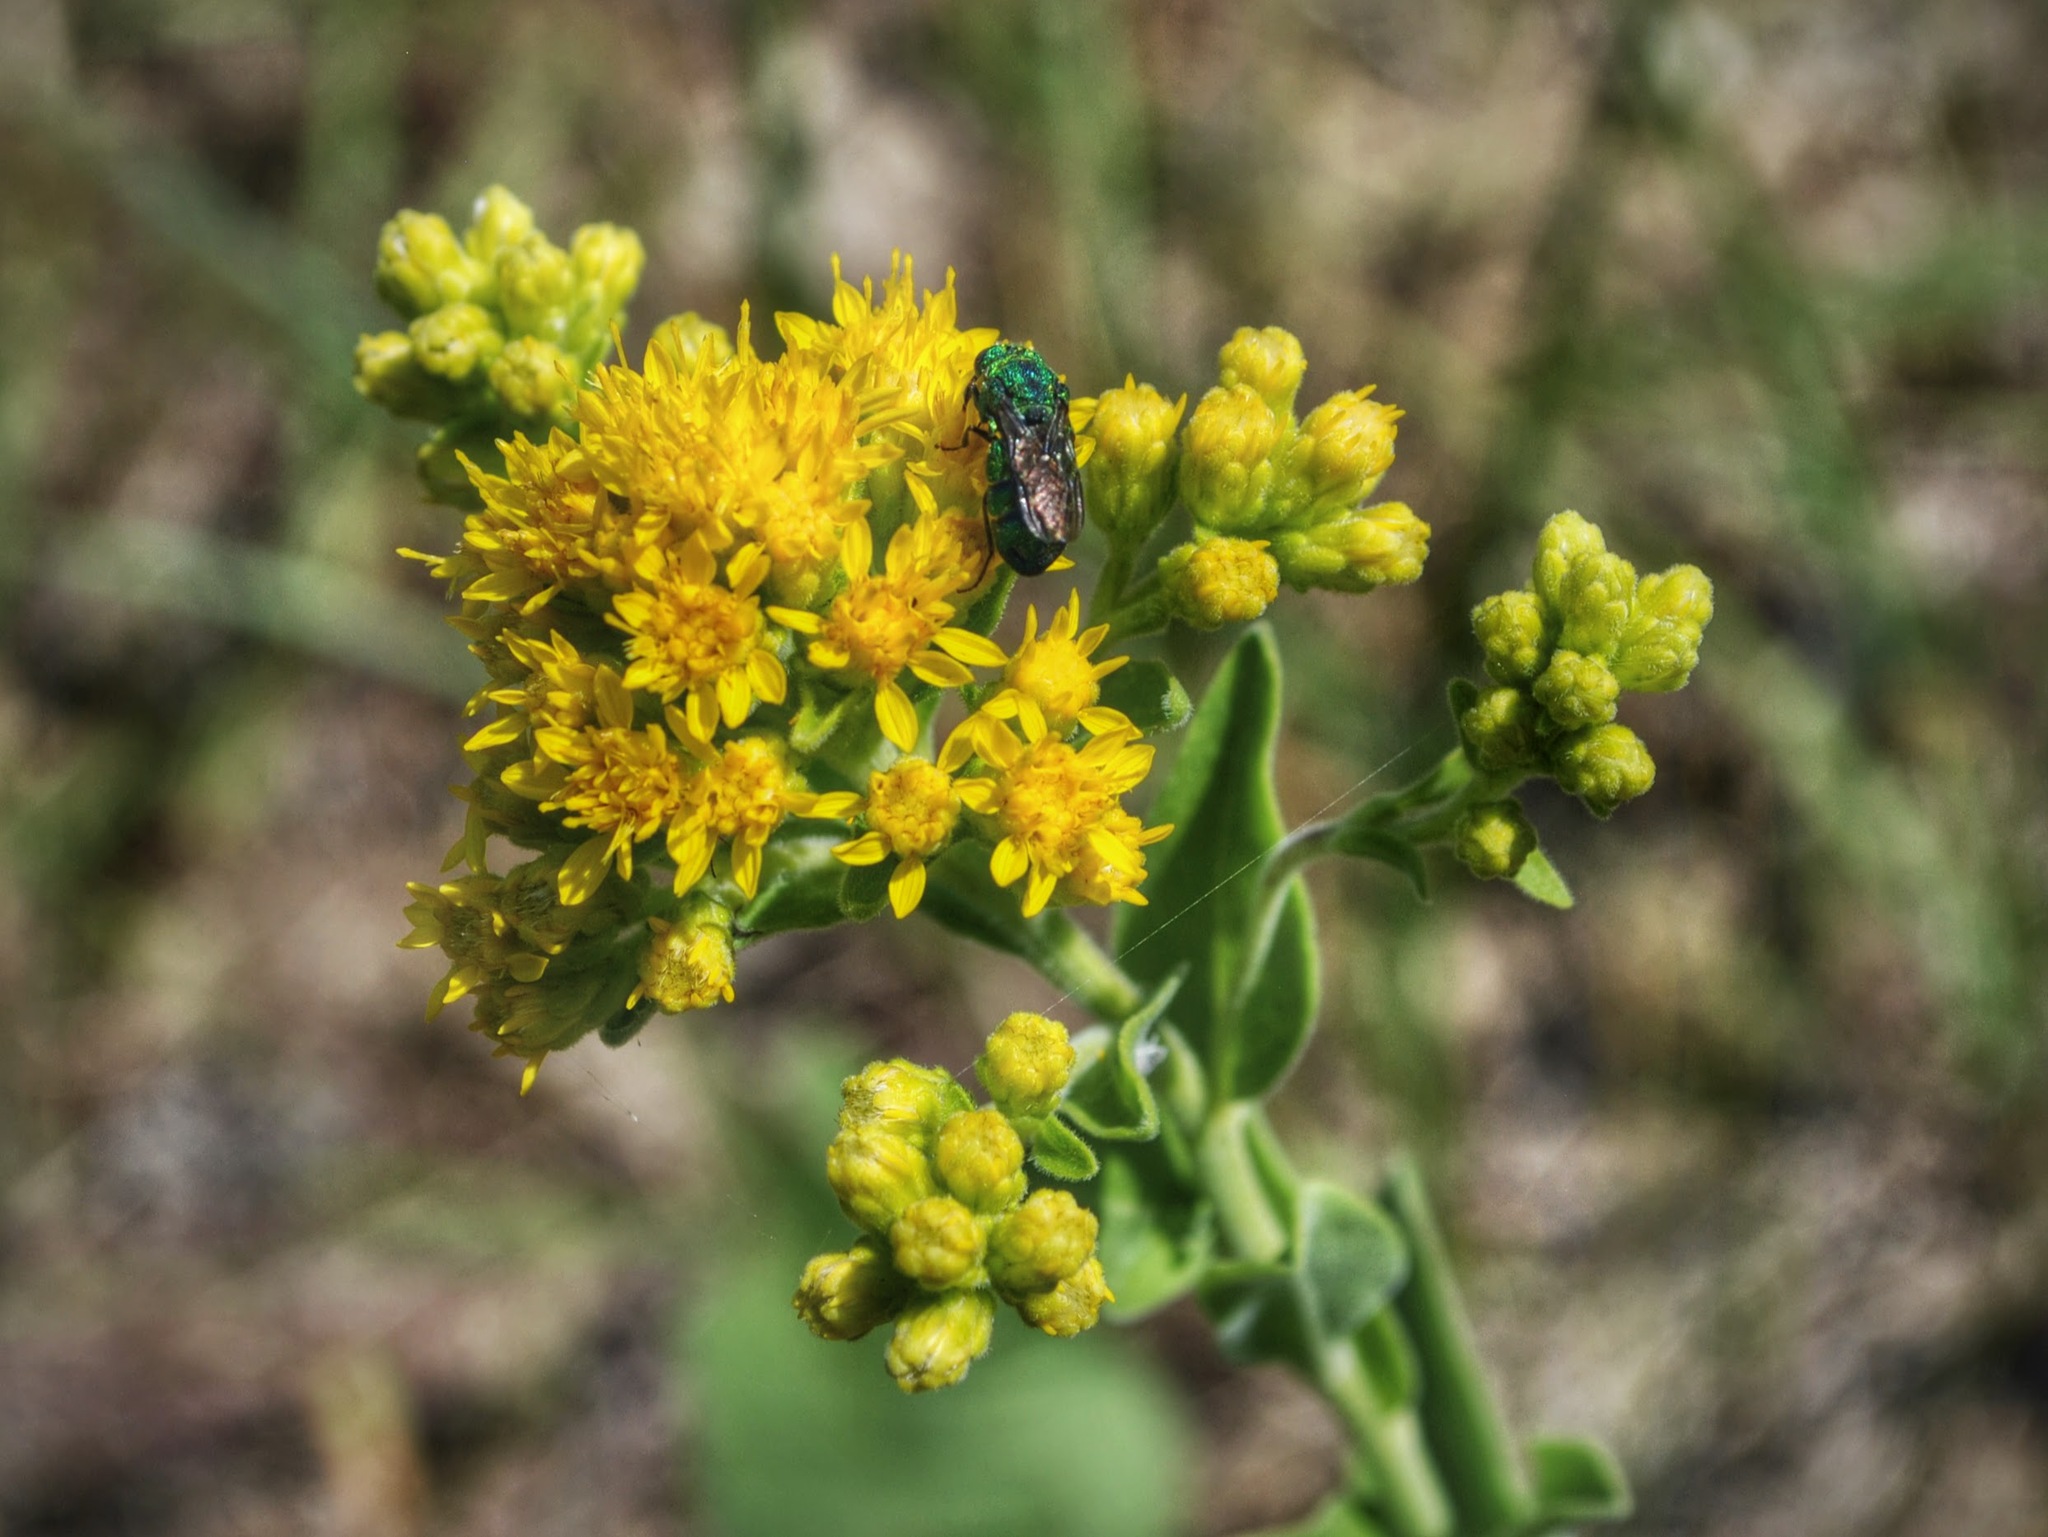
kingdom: Plantae
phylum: Tracheophyta
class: Magnoliopsida
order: Asterales
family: Asteraceae
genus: Solidago
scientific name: Solidago rigida
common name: Rigid goldenrod
